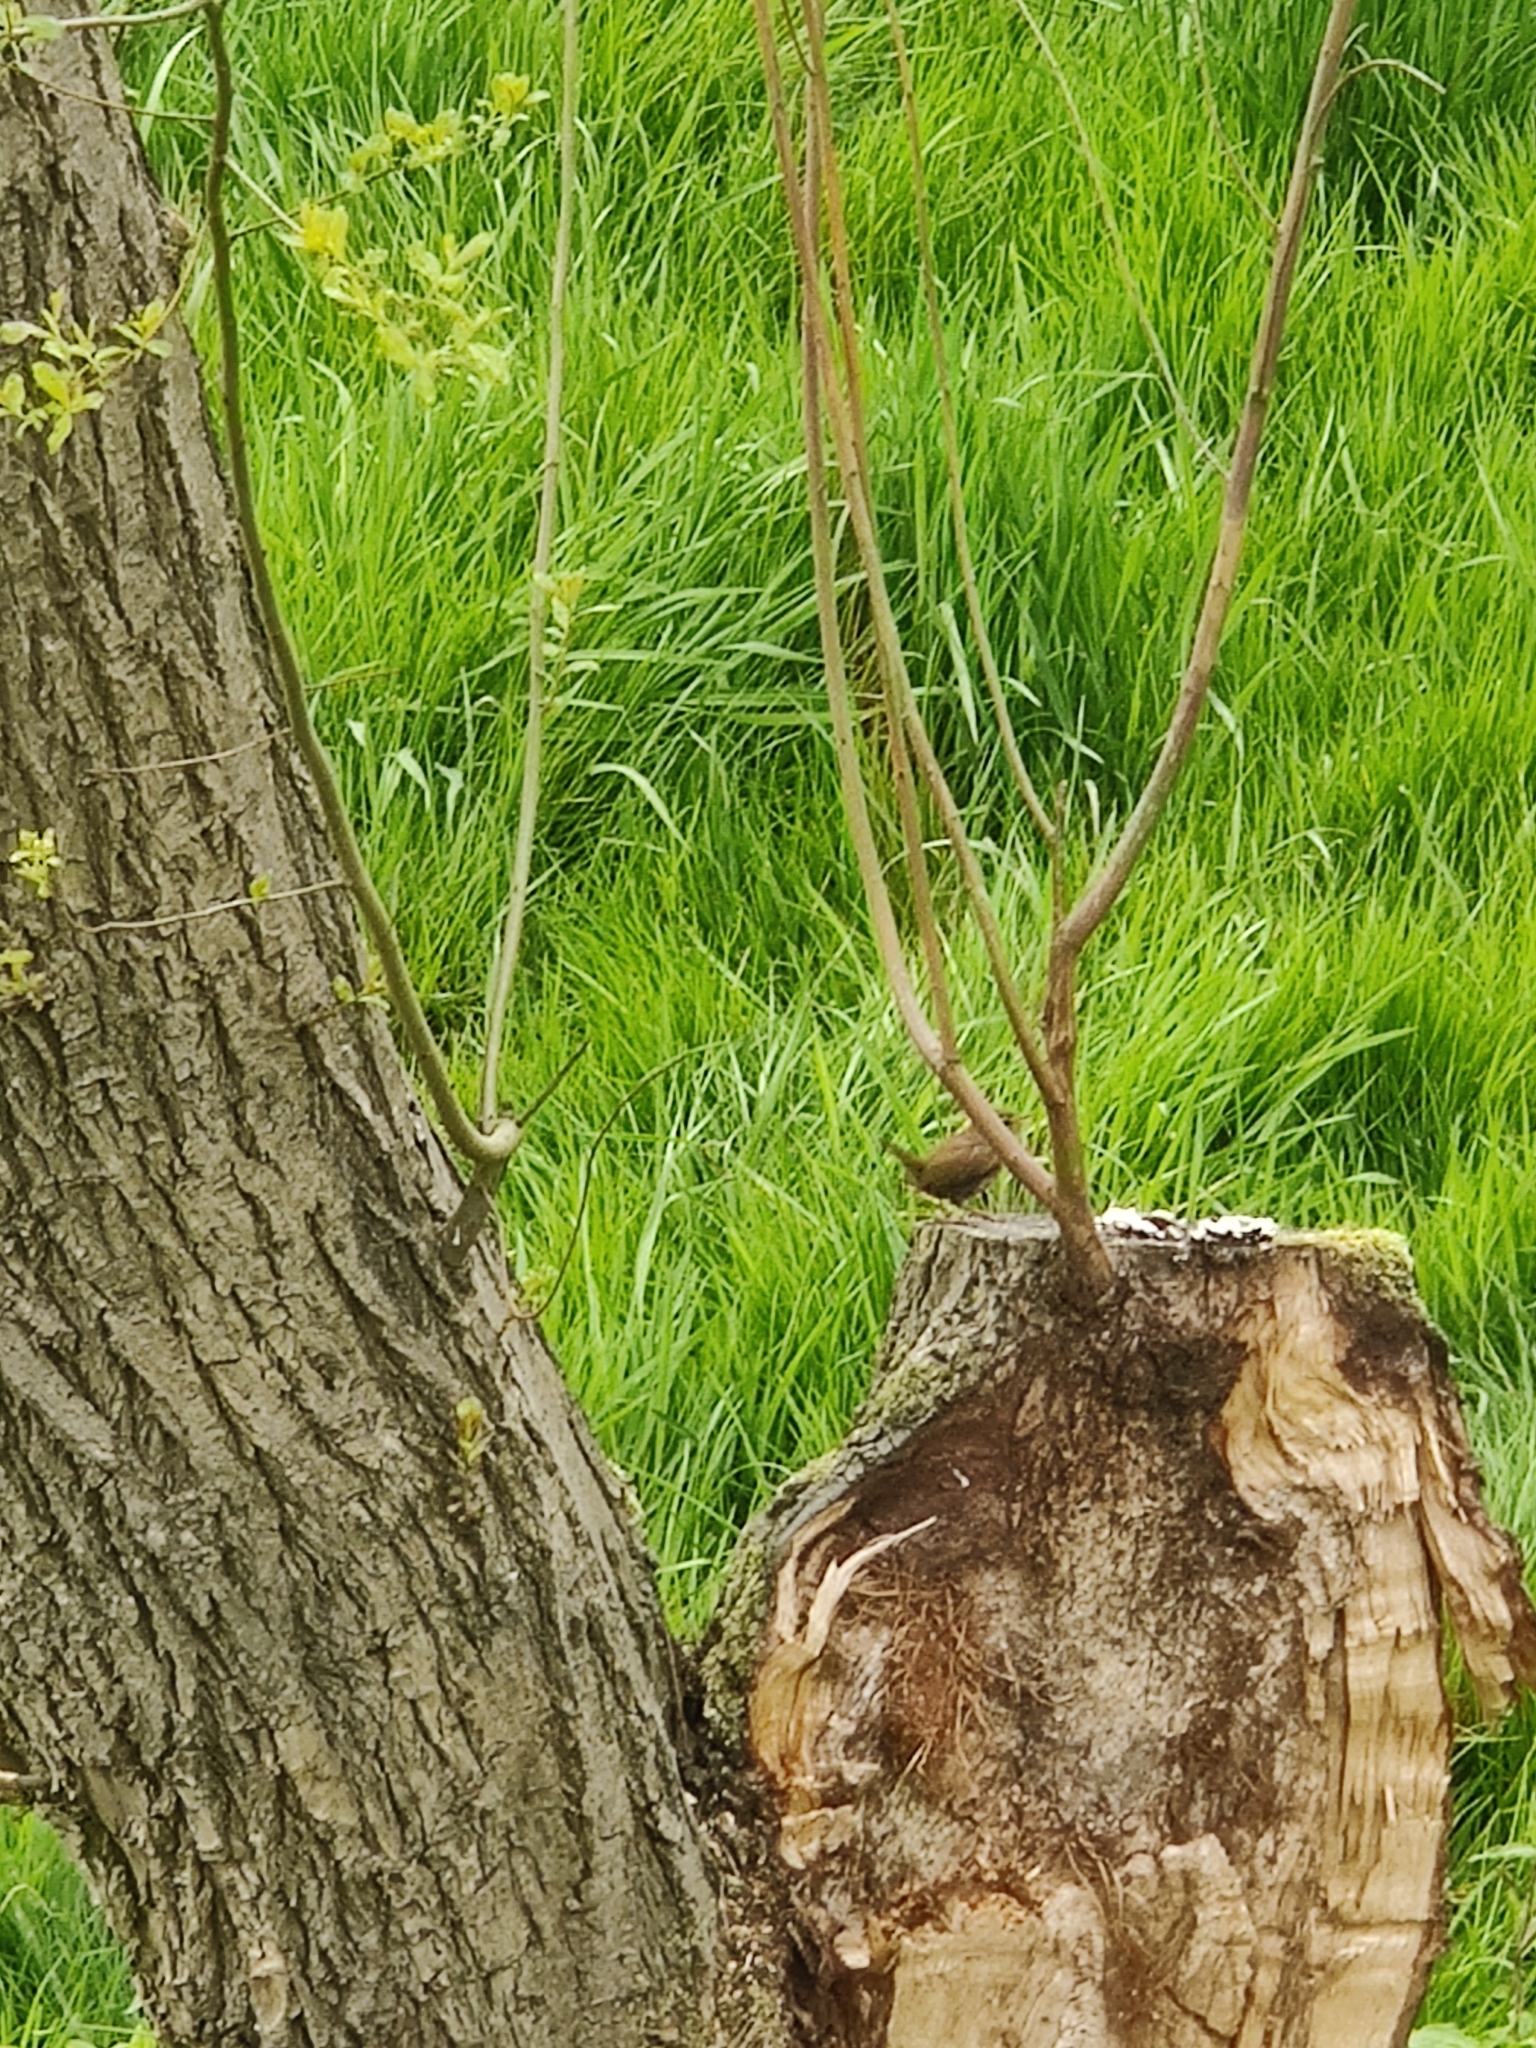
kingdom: Animalia
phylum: Chordata
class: Aves
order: Passeriformes
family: Troglodytidae
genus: Troglodytes
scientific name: Troglodytes troglodytes
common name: Eurasian wren
